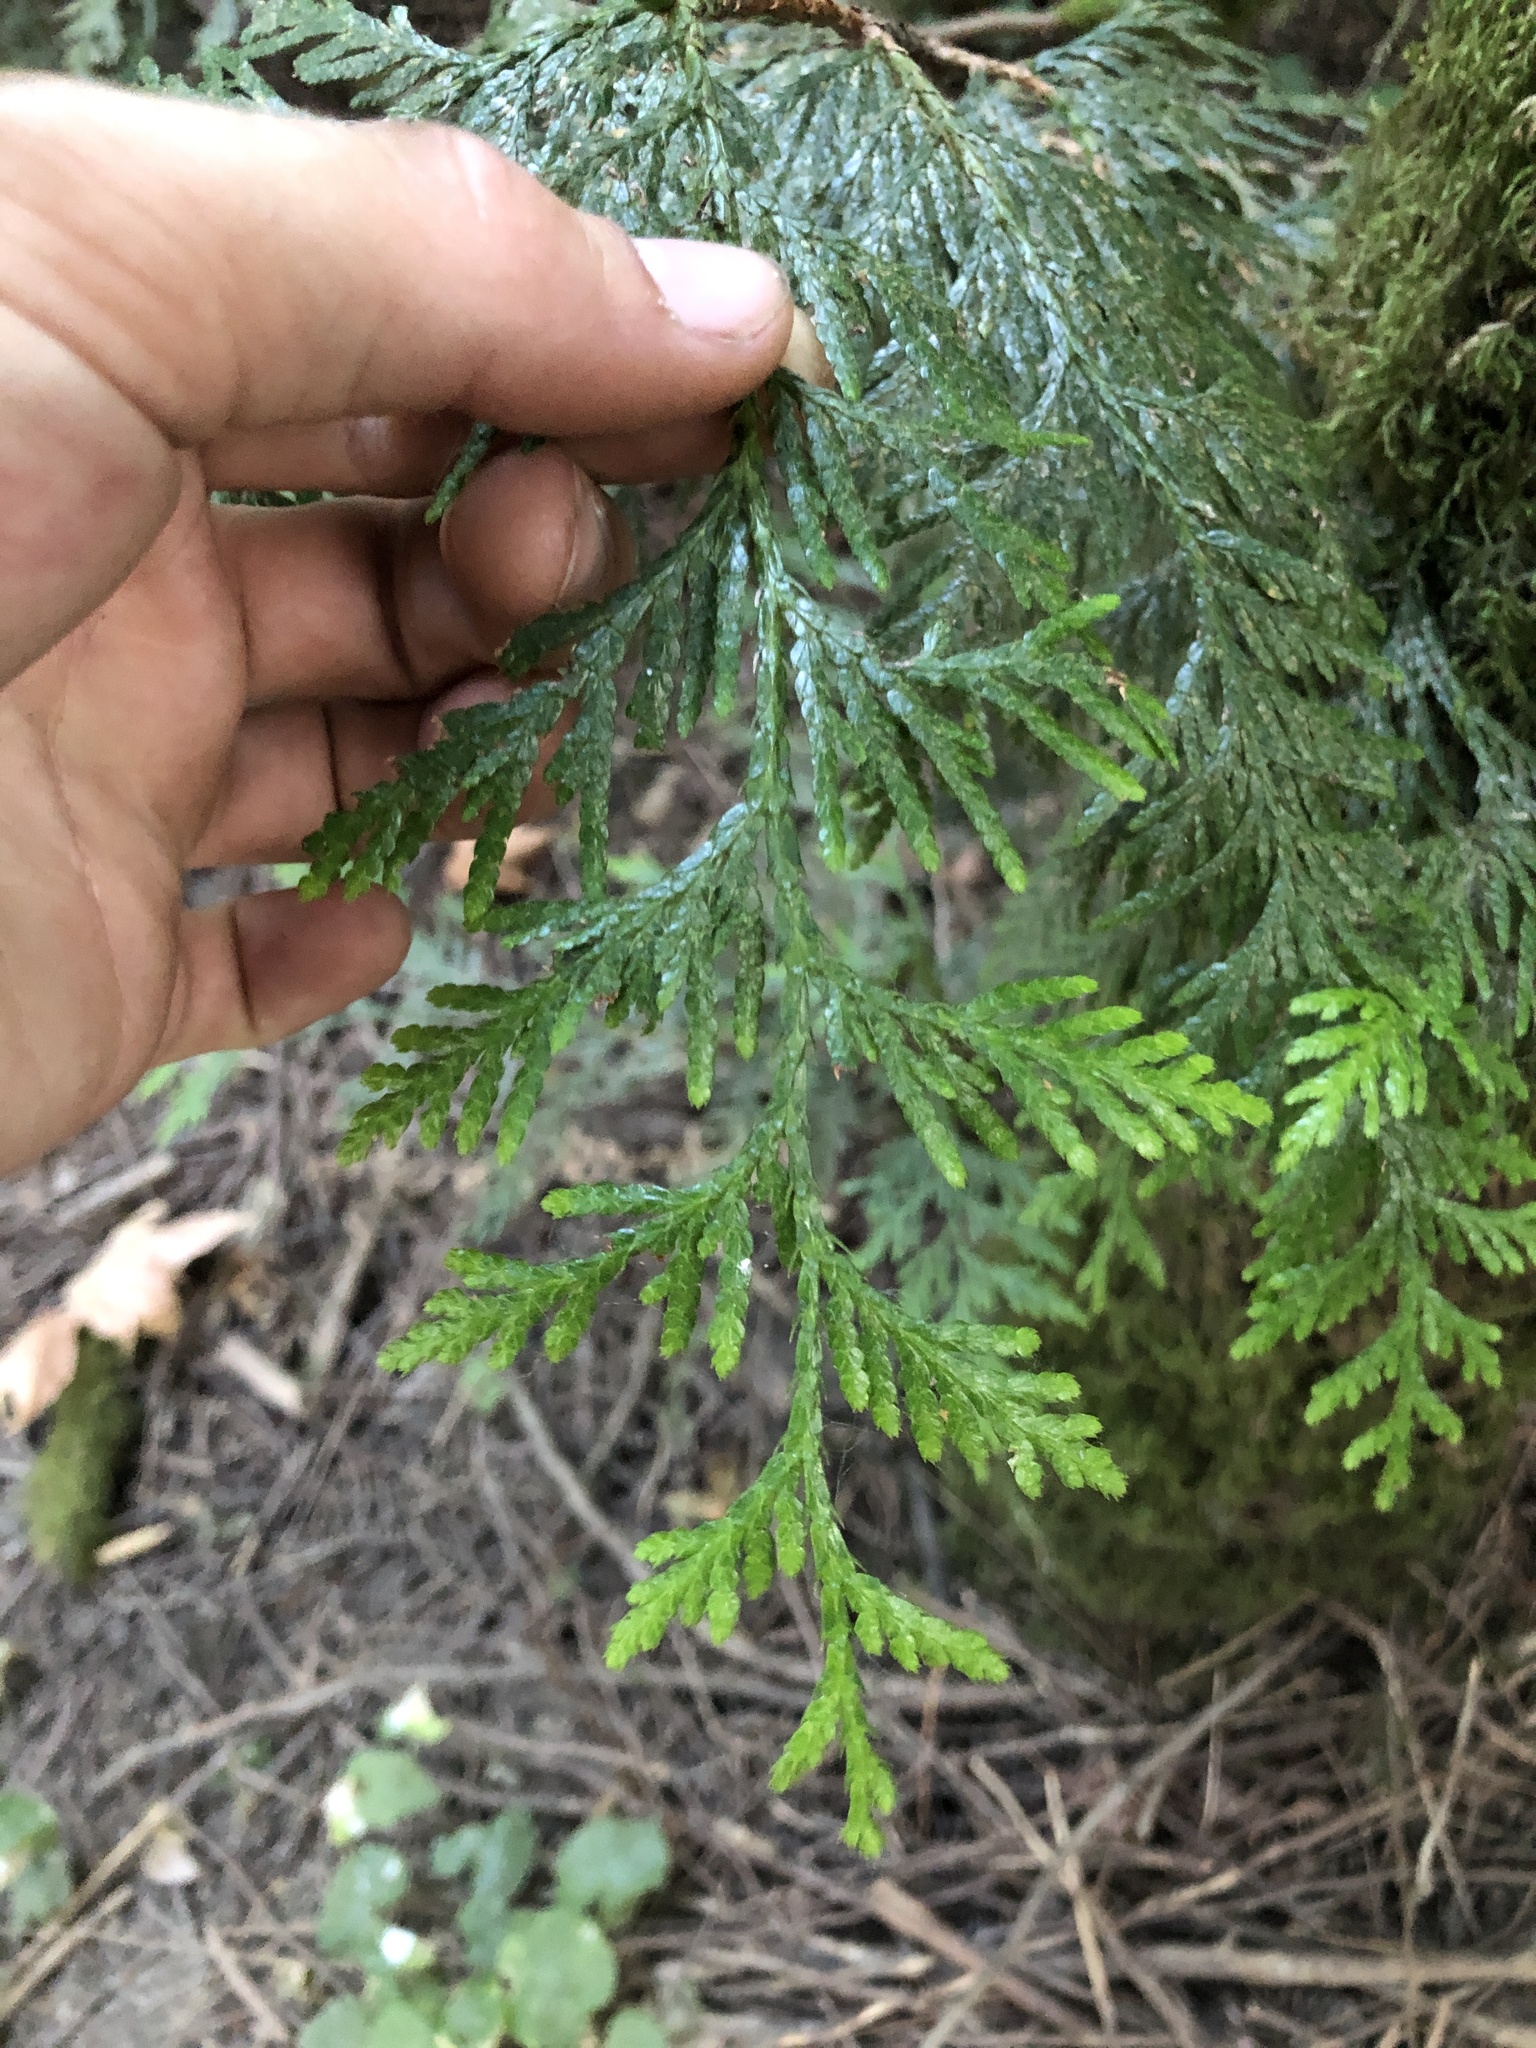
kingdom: Plantae
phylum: Tracheophyta
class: Pinopsida
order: Pinales
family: Cupressaceae
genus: Thuja
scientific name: Thuja plicata
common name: Western red-cedar
